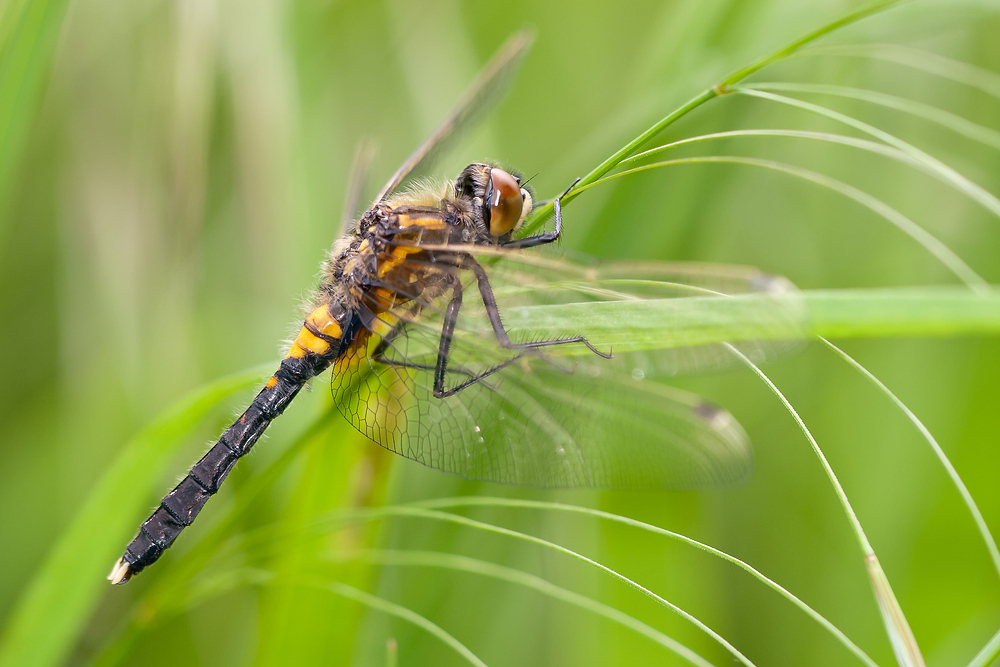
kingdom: Animalia
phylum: Arthropoda
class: Insecta
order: Odonata
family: Libellulidae
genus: Leucorrhinia
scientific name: Leucorrhinia caudalis
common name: Lilypad whiteface
